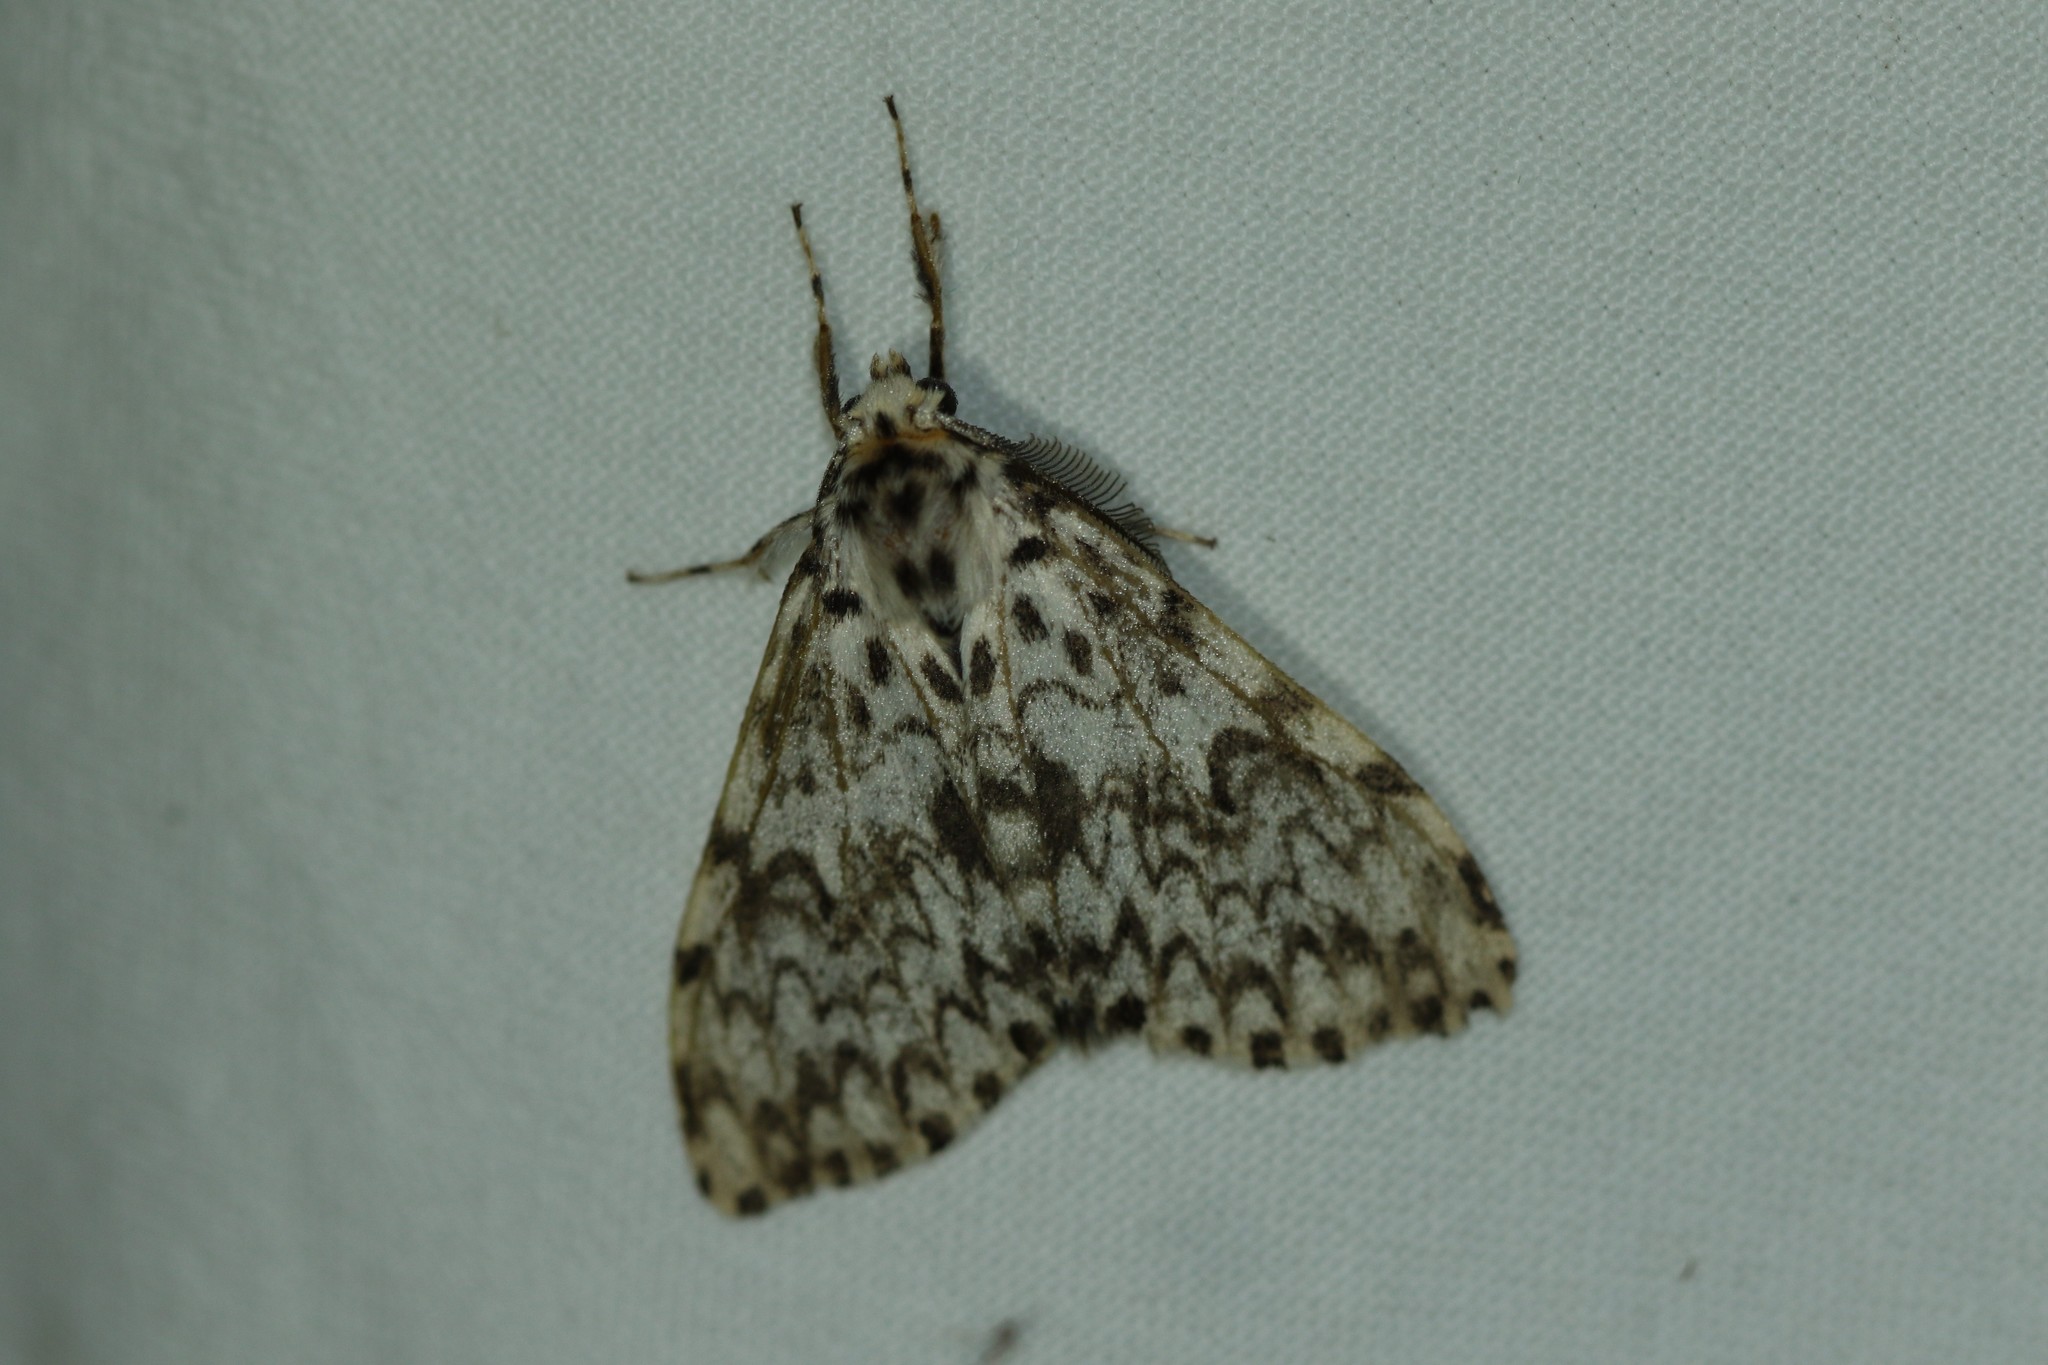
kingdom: Animalia
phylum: Arthropoda
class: Insecta
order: Lepidoptera
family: Erebidae
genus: Lymantria
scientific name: Lymantria monacha
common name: Black arches
